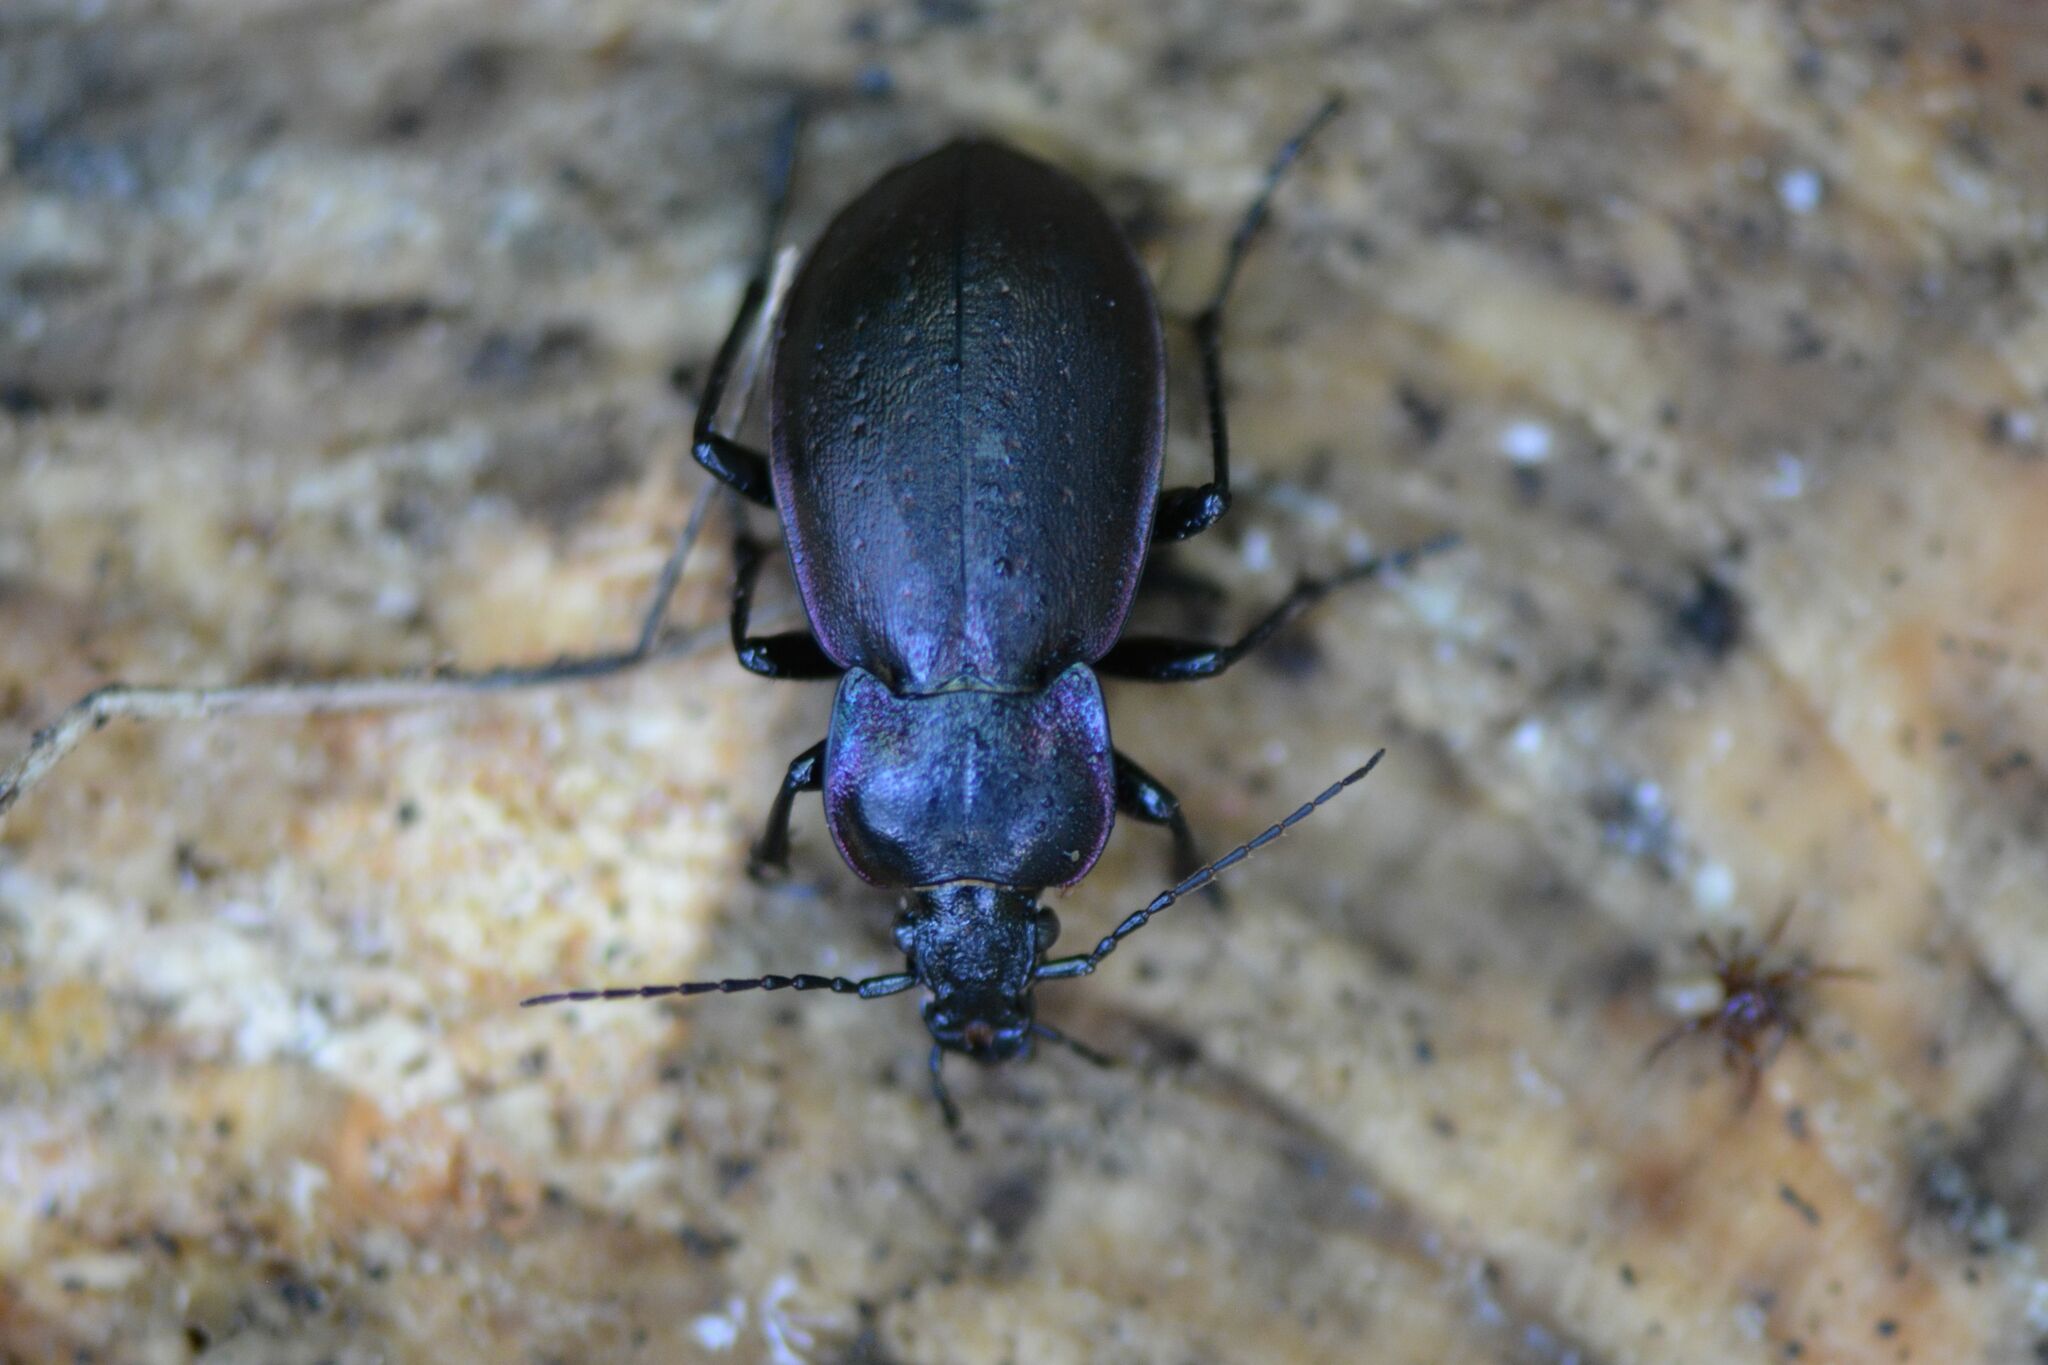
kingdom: Animalia
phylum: Arthropoda
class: Insecta
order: Coleoptera
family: Carabidae
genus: Carabus
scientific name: Carabus nemoralis
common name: European ground beetle
